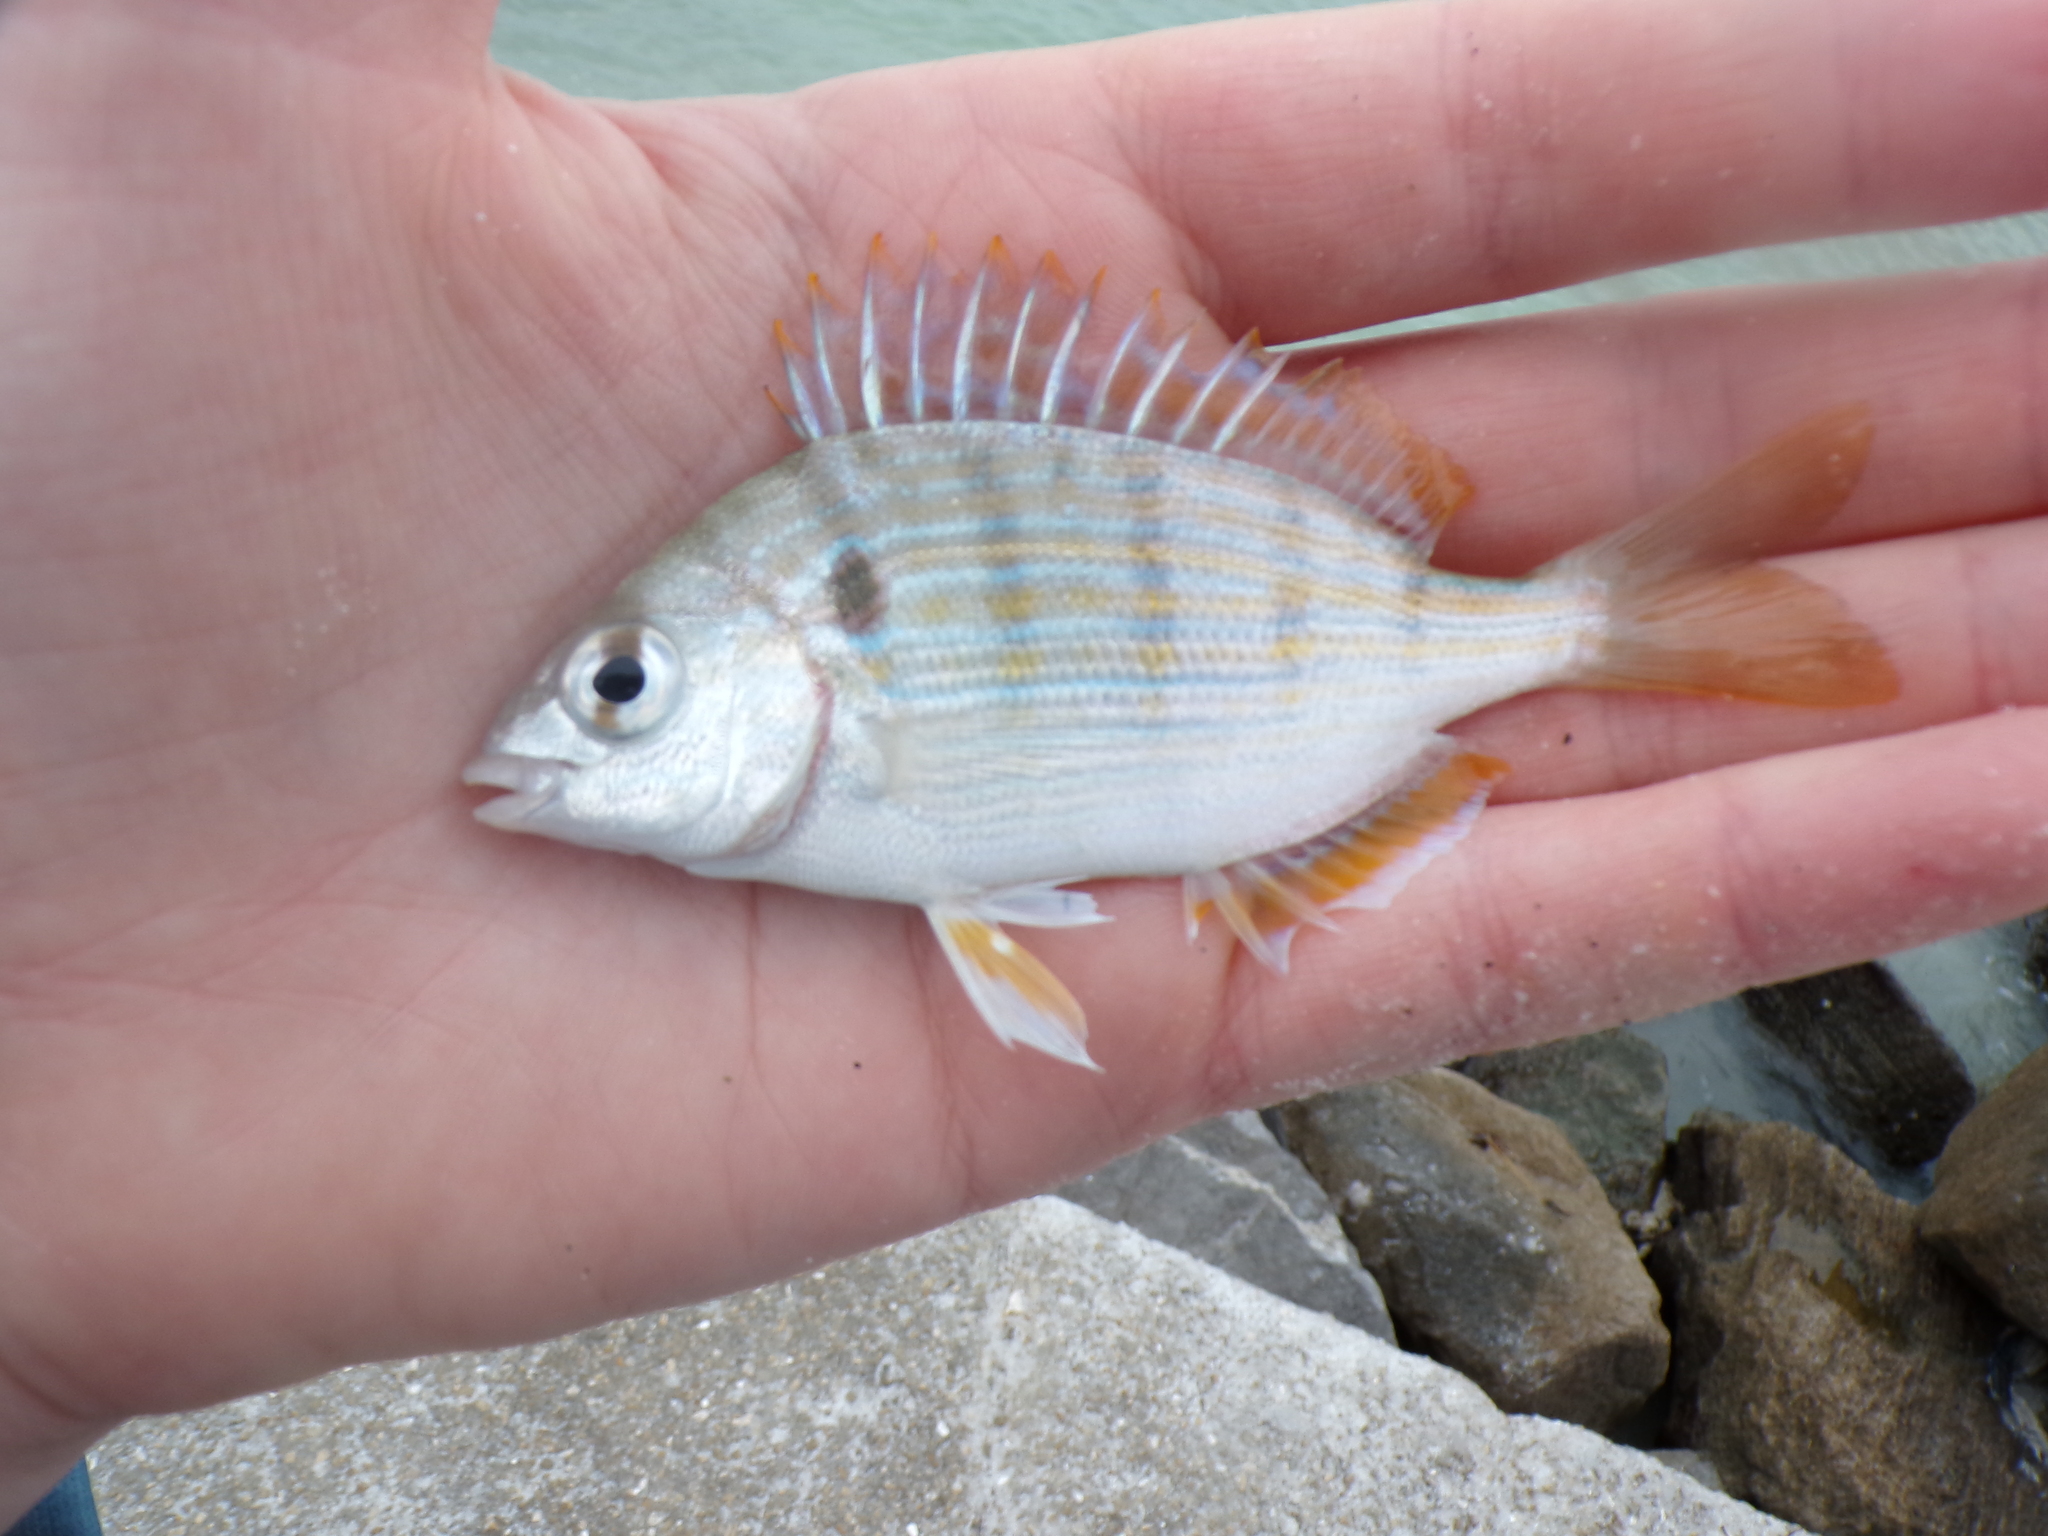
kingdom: Animalia
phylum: Chordata
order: Perciformes
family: Sparidae
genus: Lagodon
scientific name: Lagodon rhomboides
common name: Pinfish
